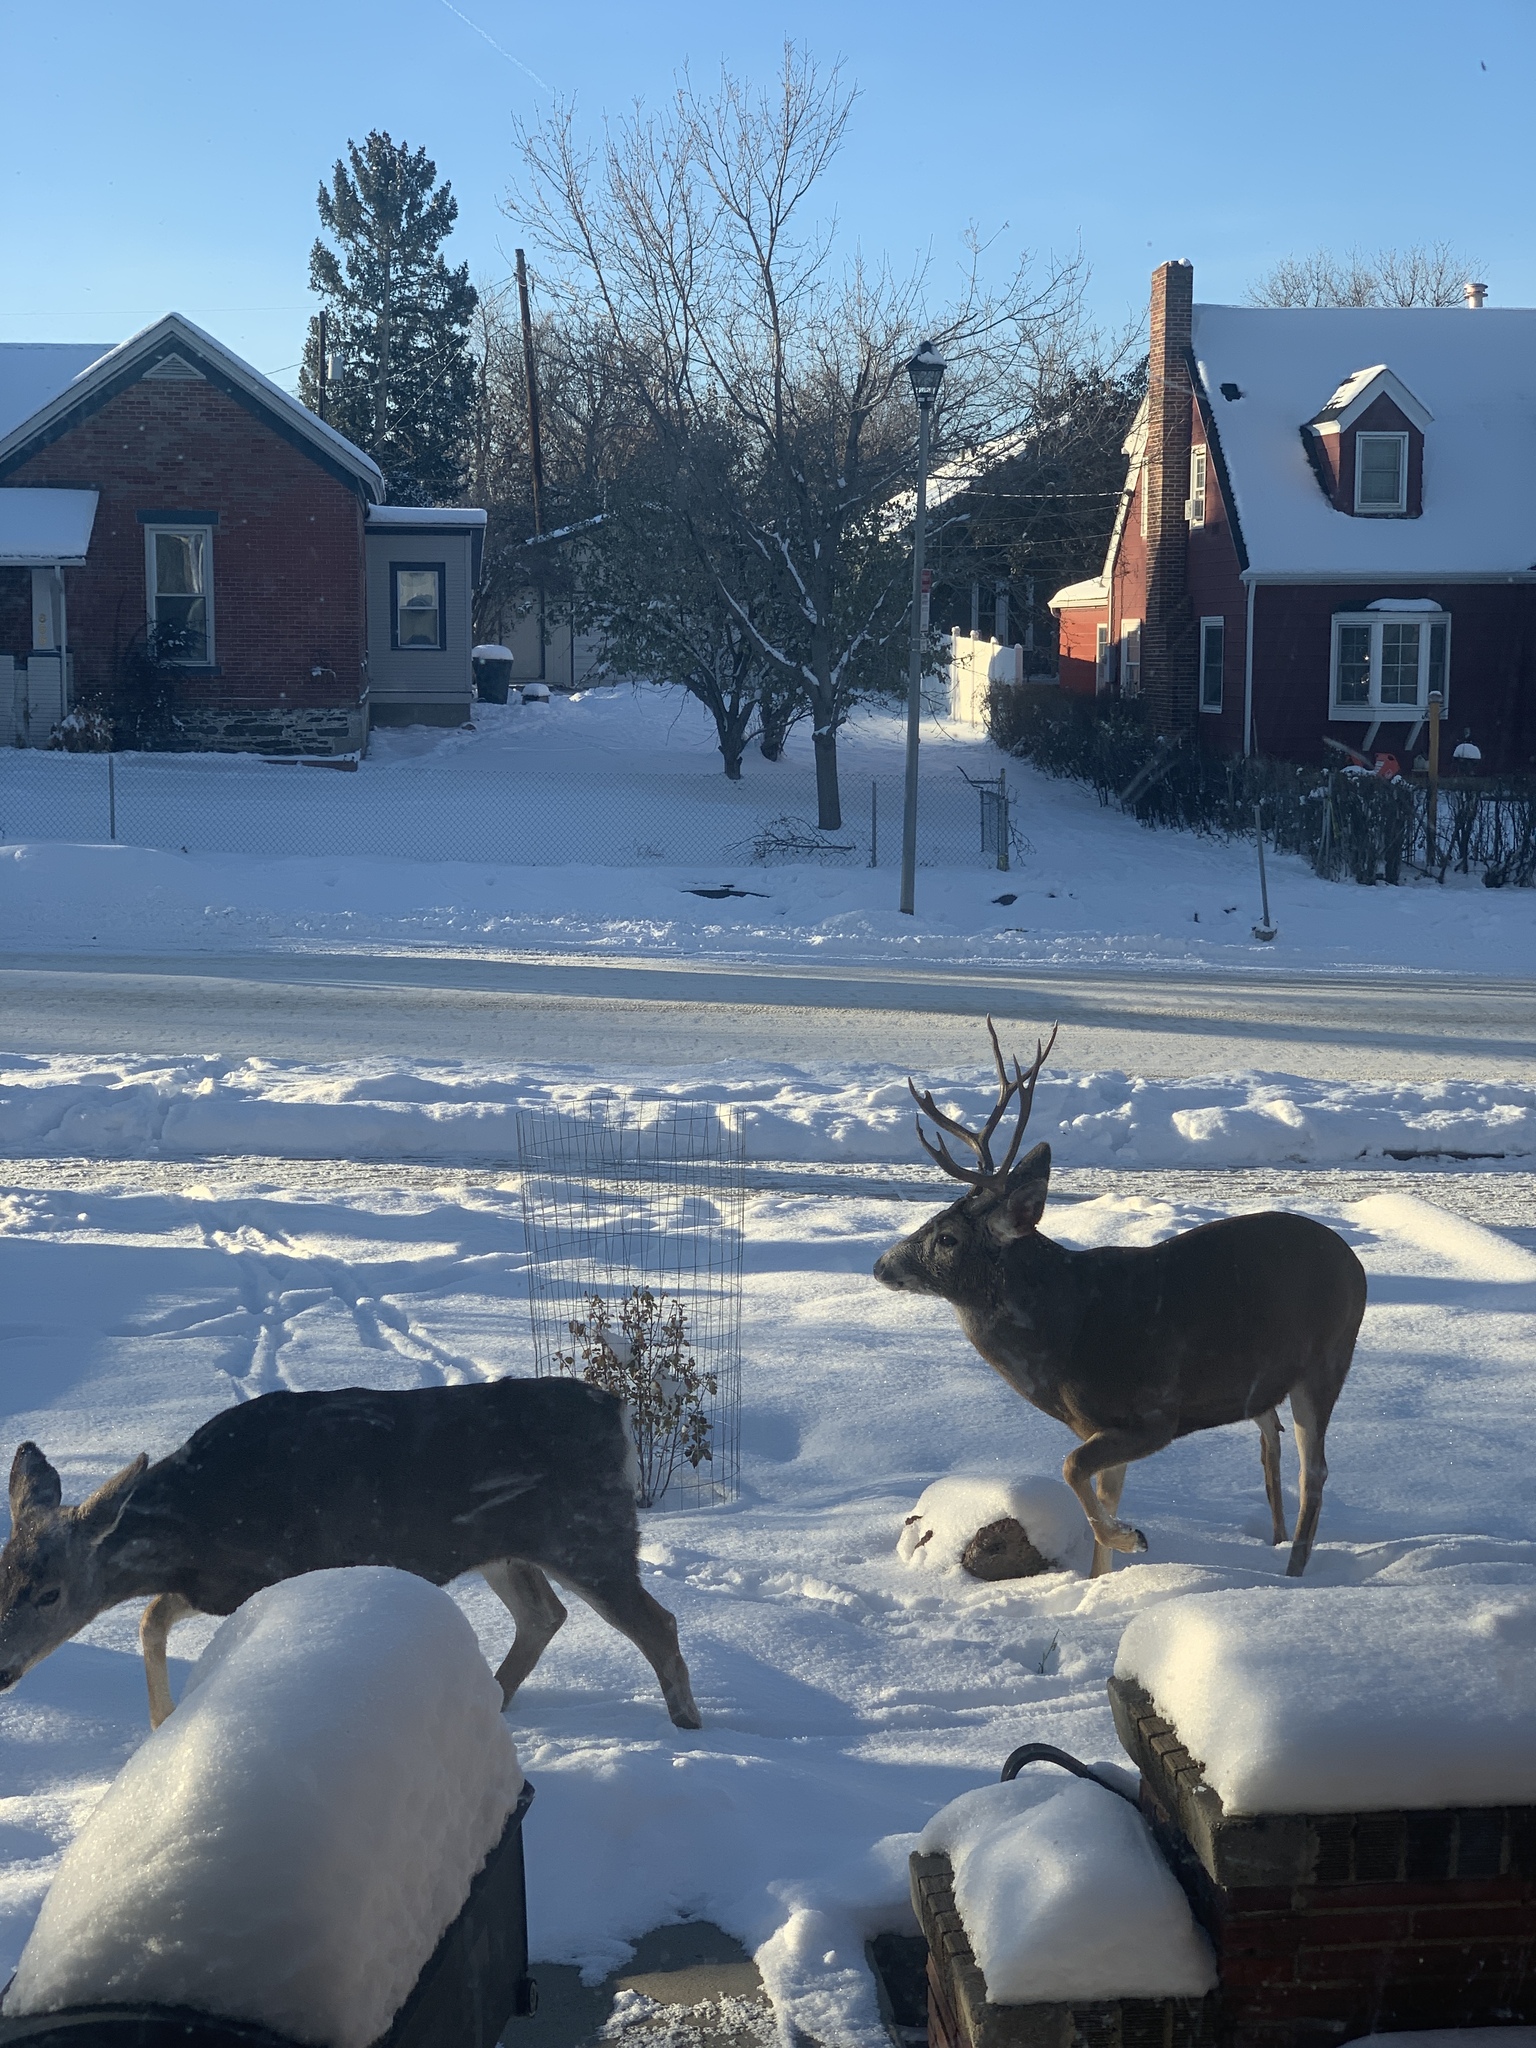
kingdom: Animalia
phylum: Chordata
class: Mammalia
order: Artiodactyla
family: Cervidae
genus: Odocoileus
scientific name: Odocoileus hemionus
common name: Mule deer
